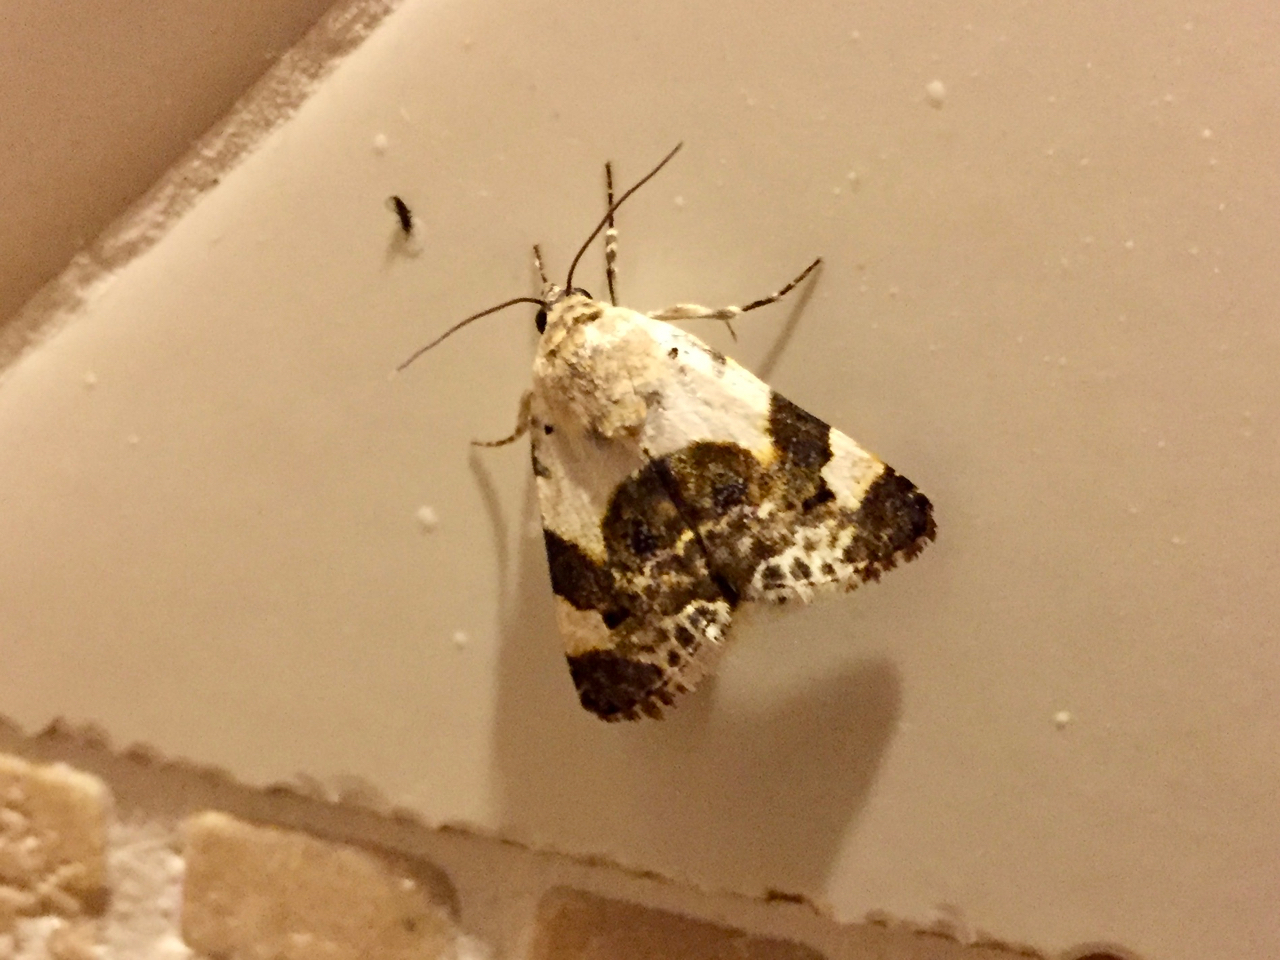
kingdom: Animalia
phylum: Arthropoda
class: Insecta
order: Lepidoptera
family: Noctuidae
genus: Acontia
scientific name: Acontia lucida
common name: Pale shoulder
